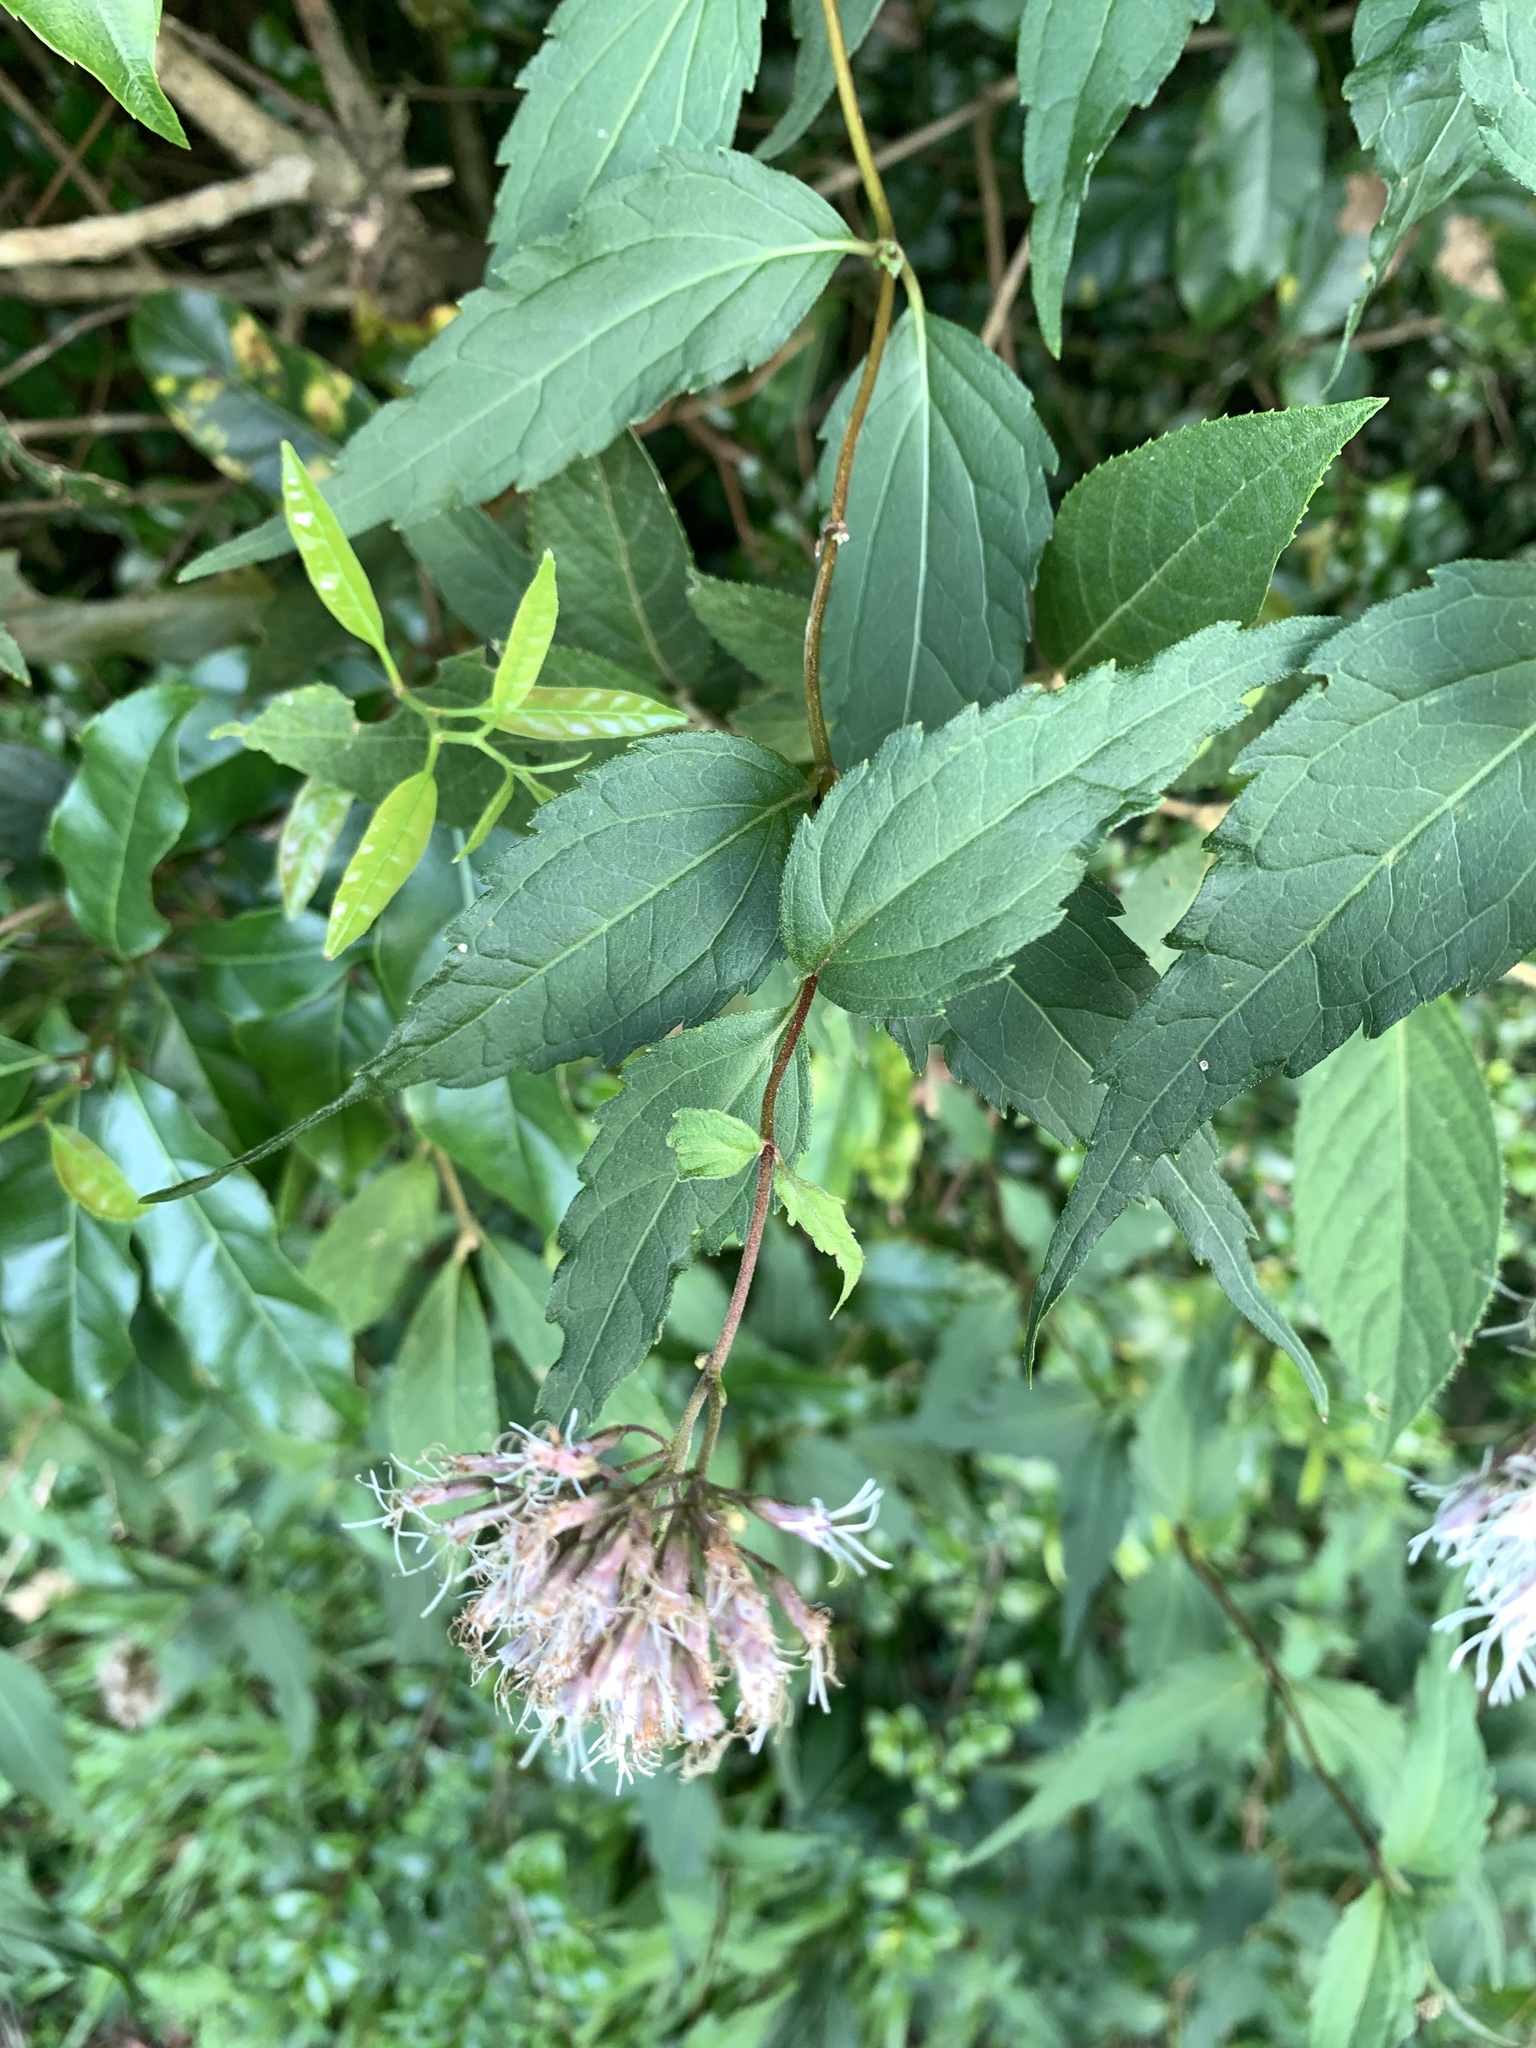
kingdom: Plantae
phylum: Tracheophyta
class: Magnoliopsida
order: Asterales
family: Asteraceae
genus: Eupatorium
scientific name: Eupatorium tashiroi
